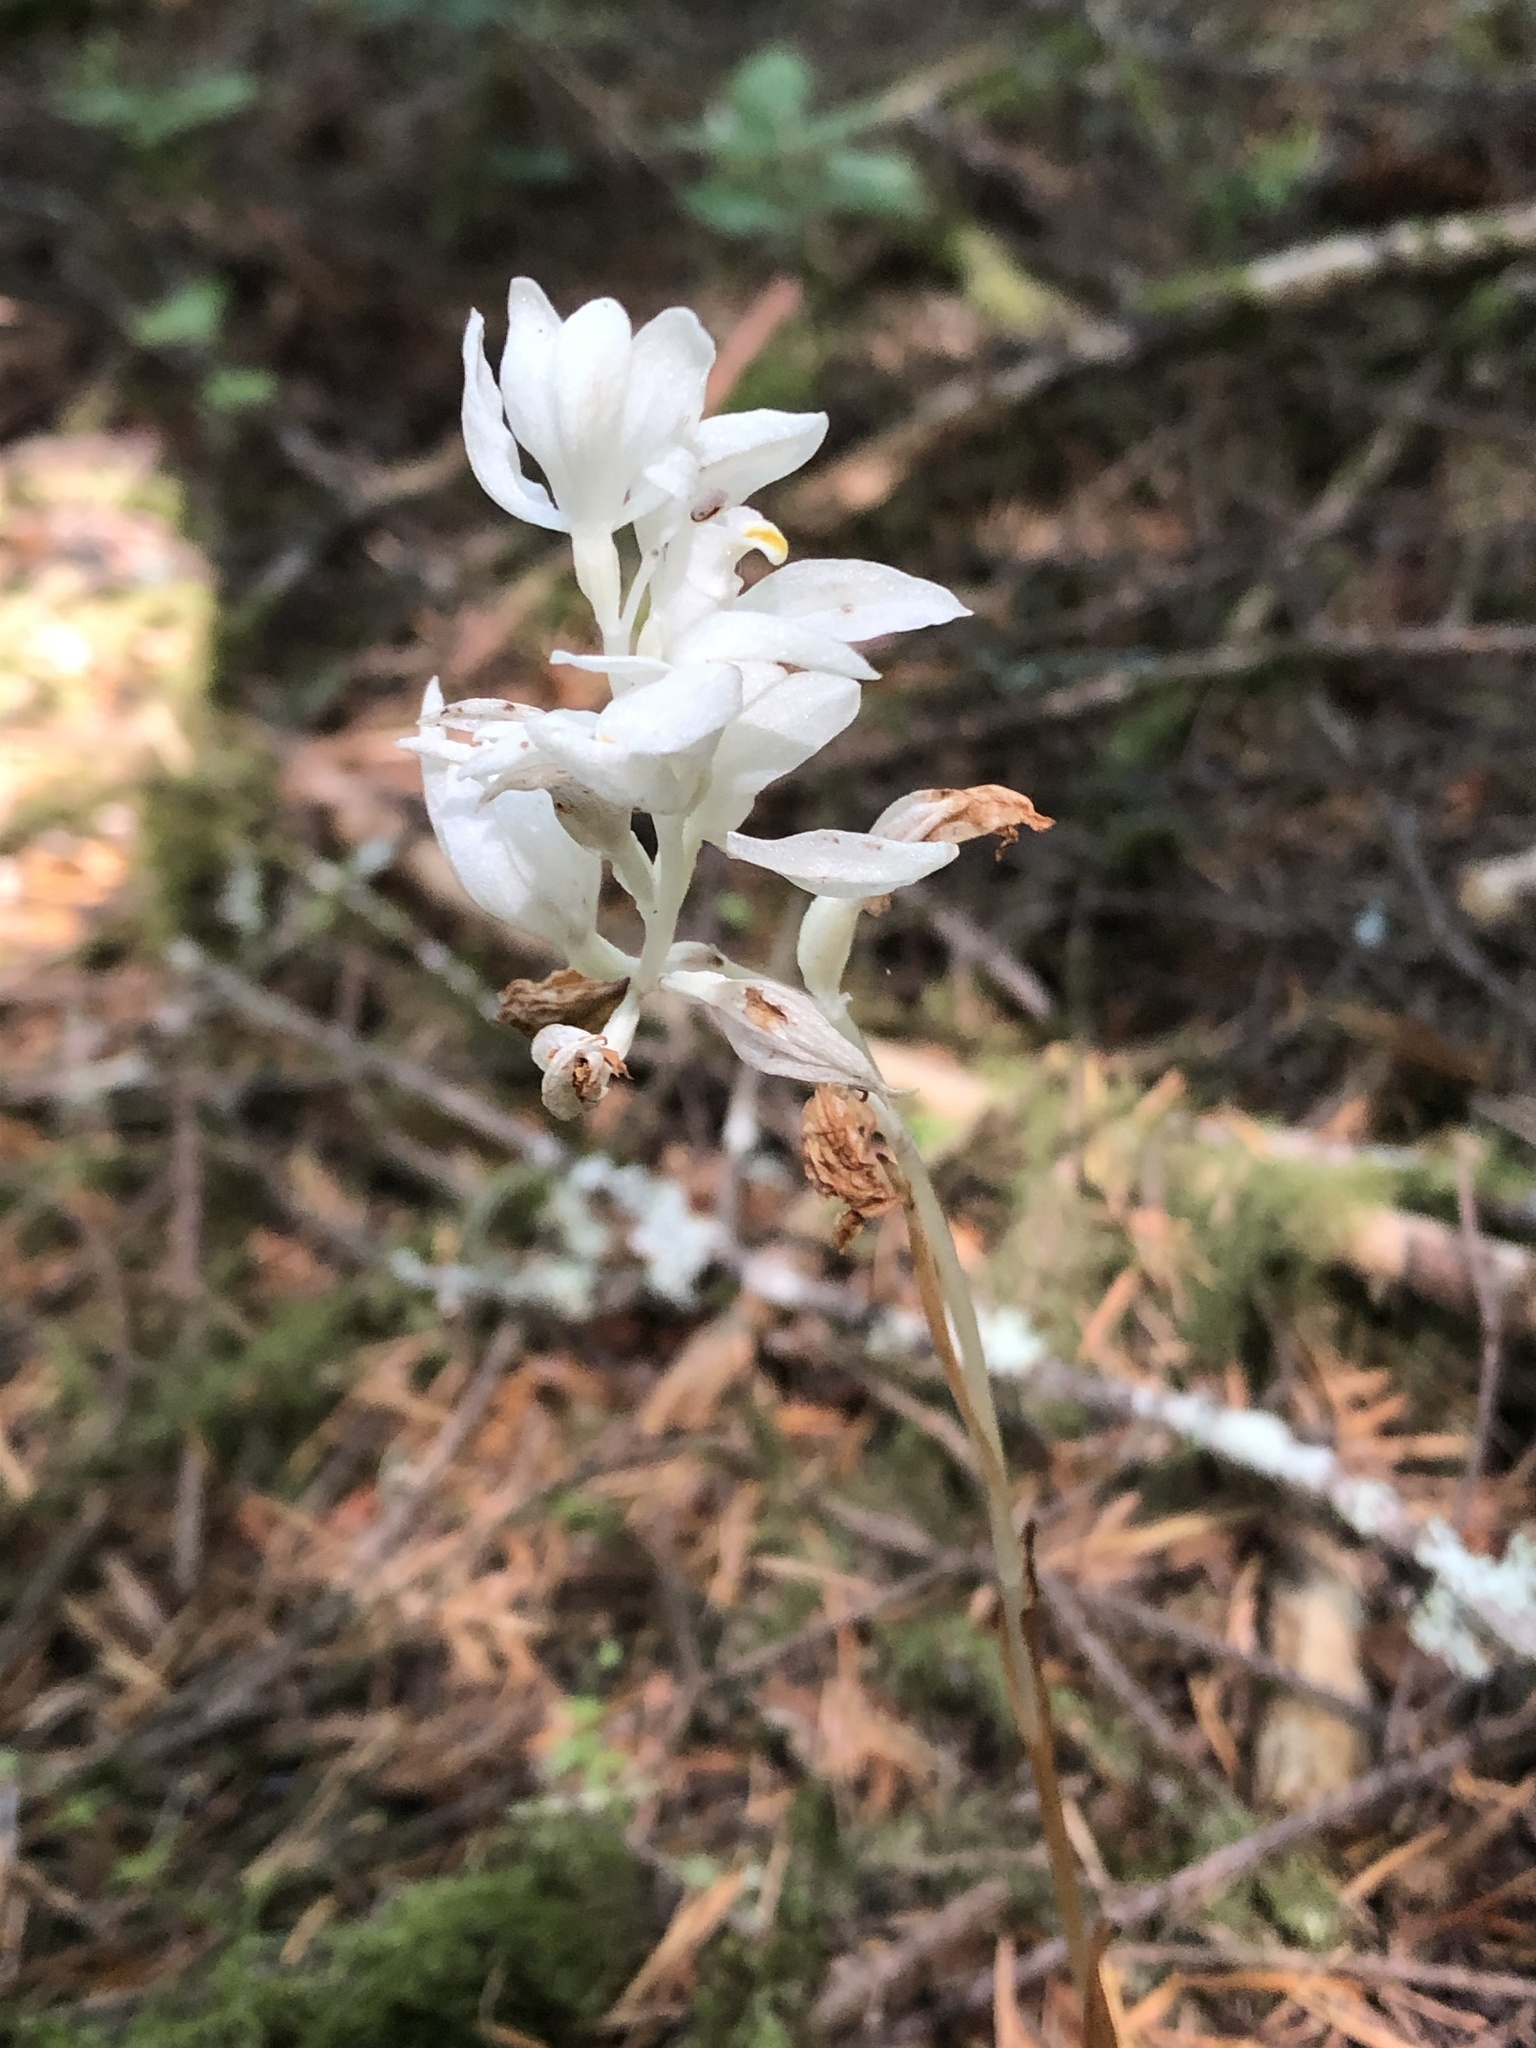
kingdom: Plantae
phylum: Tracheophyta
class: Liliopsida
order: Asparagales
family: Orchidaceae
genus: Cephalanthera
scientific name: Cephalanthera austiniae
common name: Phantom orchid
